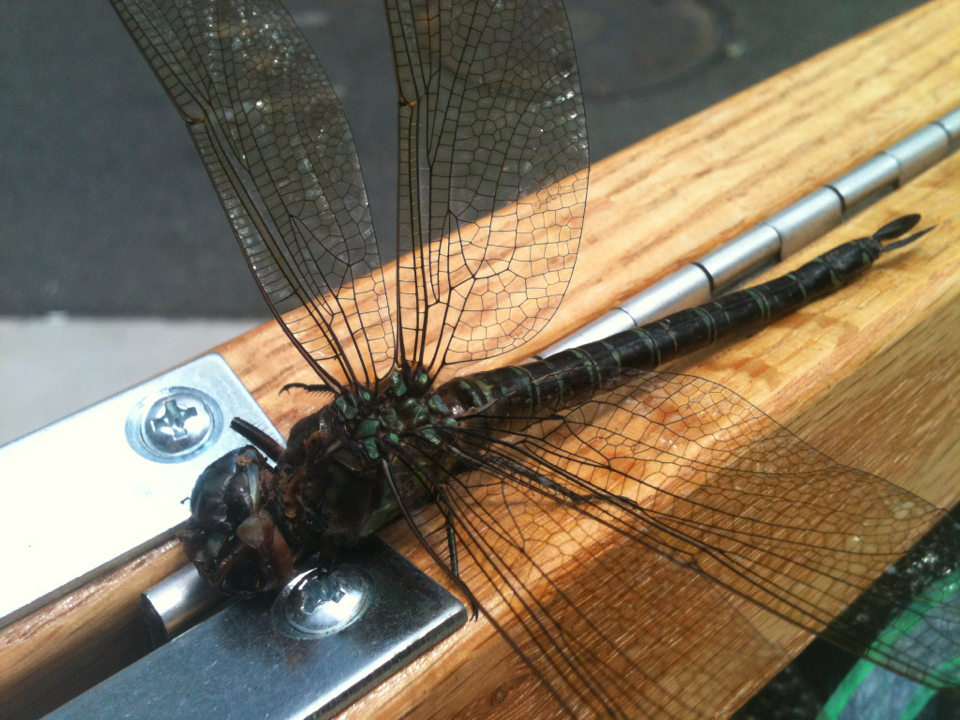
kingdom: Animalia
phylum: Arthropoda
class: Insecta
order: Odonata
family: Aeshnidae
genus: Epiaeschna
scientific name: Epiaeschna heros
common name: Swamp darner
